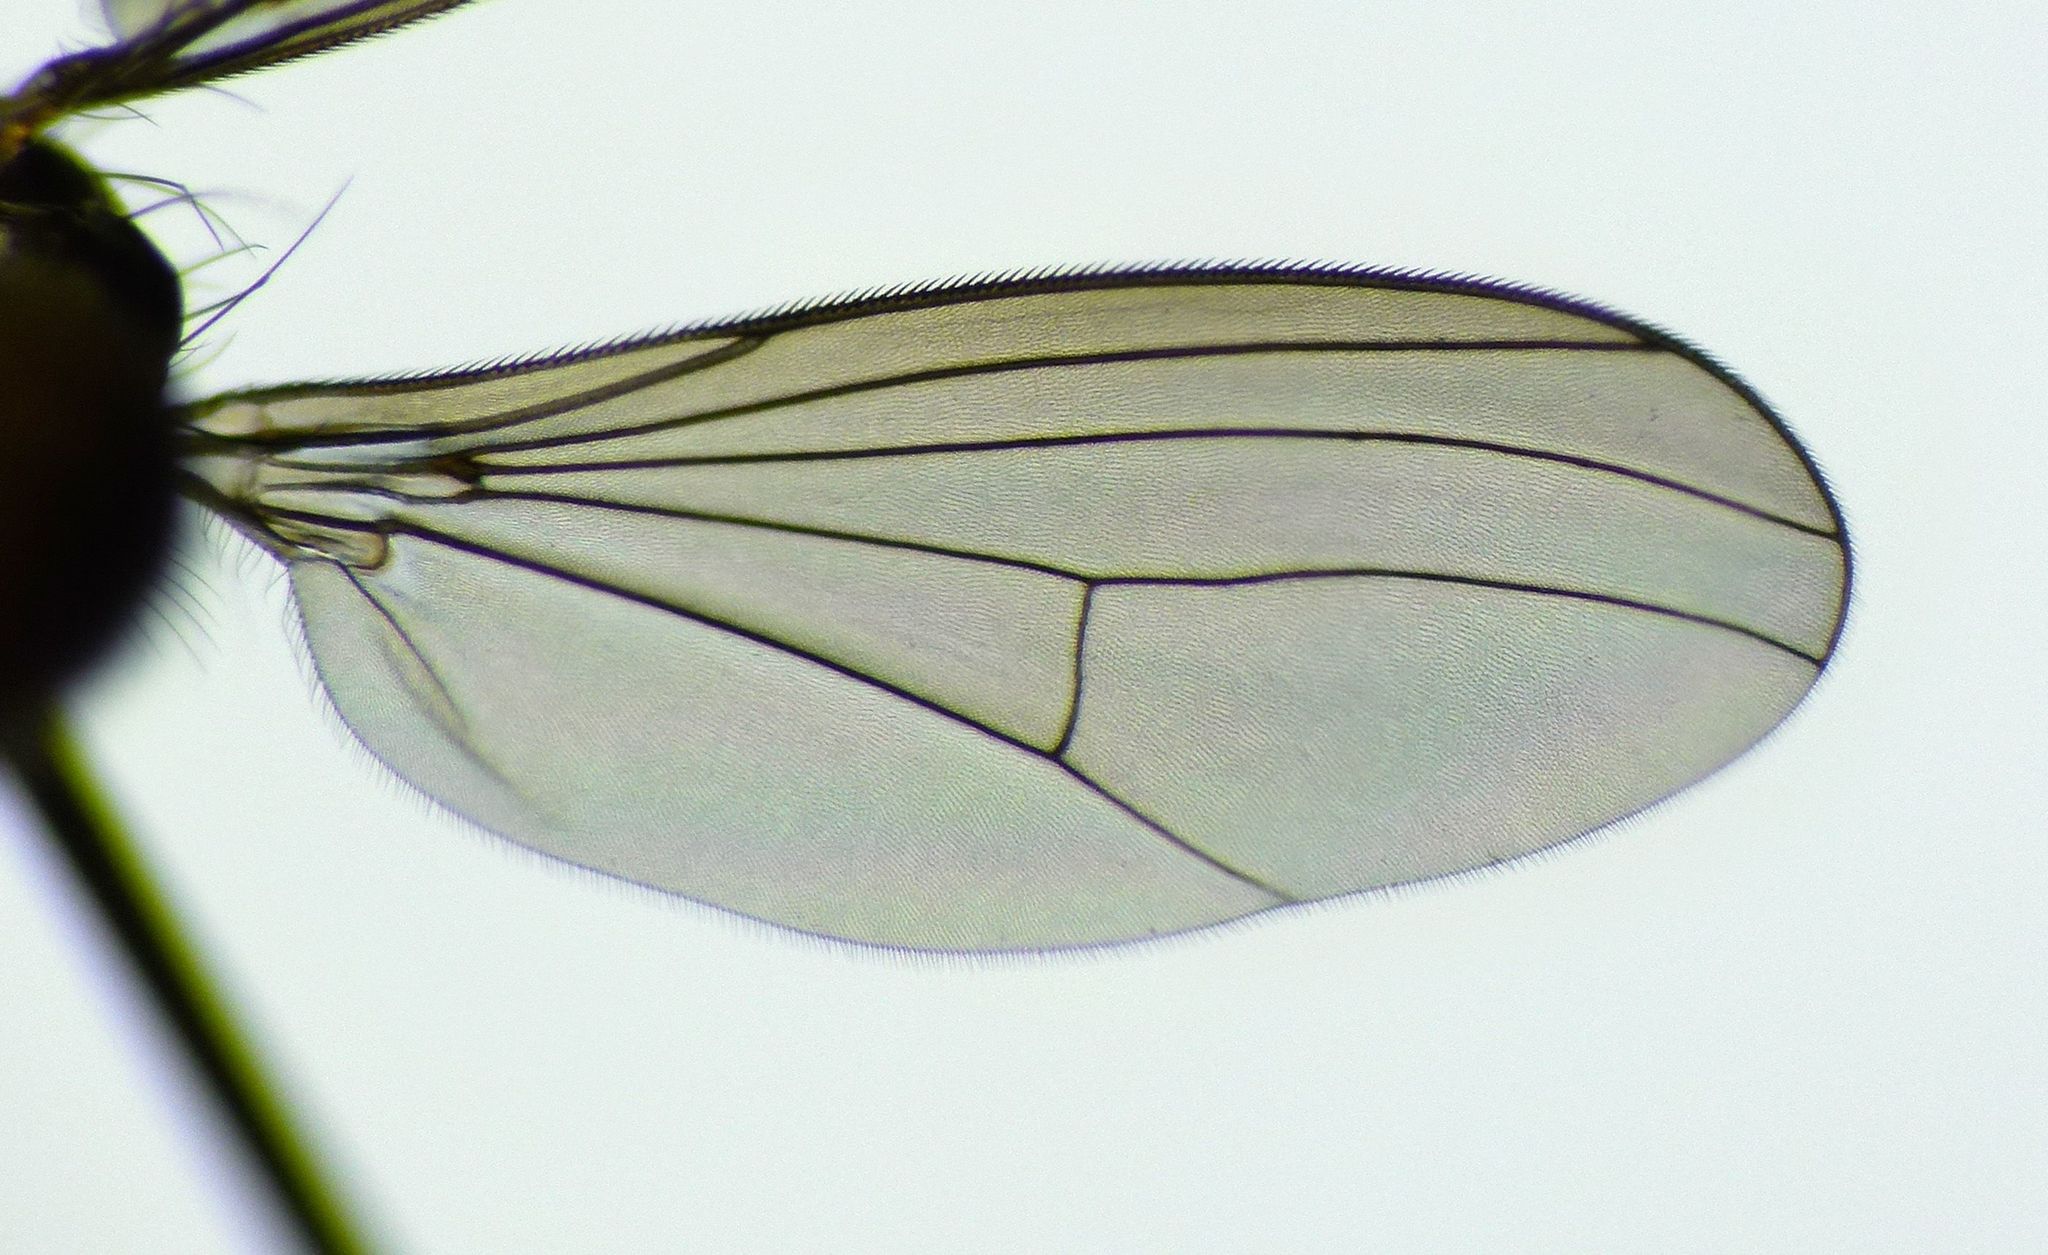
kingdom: Animalia
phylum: Arthropoda
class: Insecta
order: Diptera
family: Dolichopodidae
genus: Sympycnus
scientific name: Sympycnus longipilus
